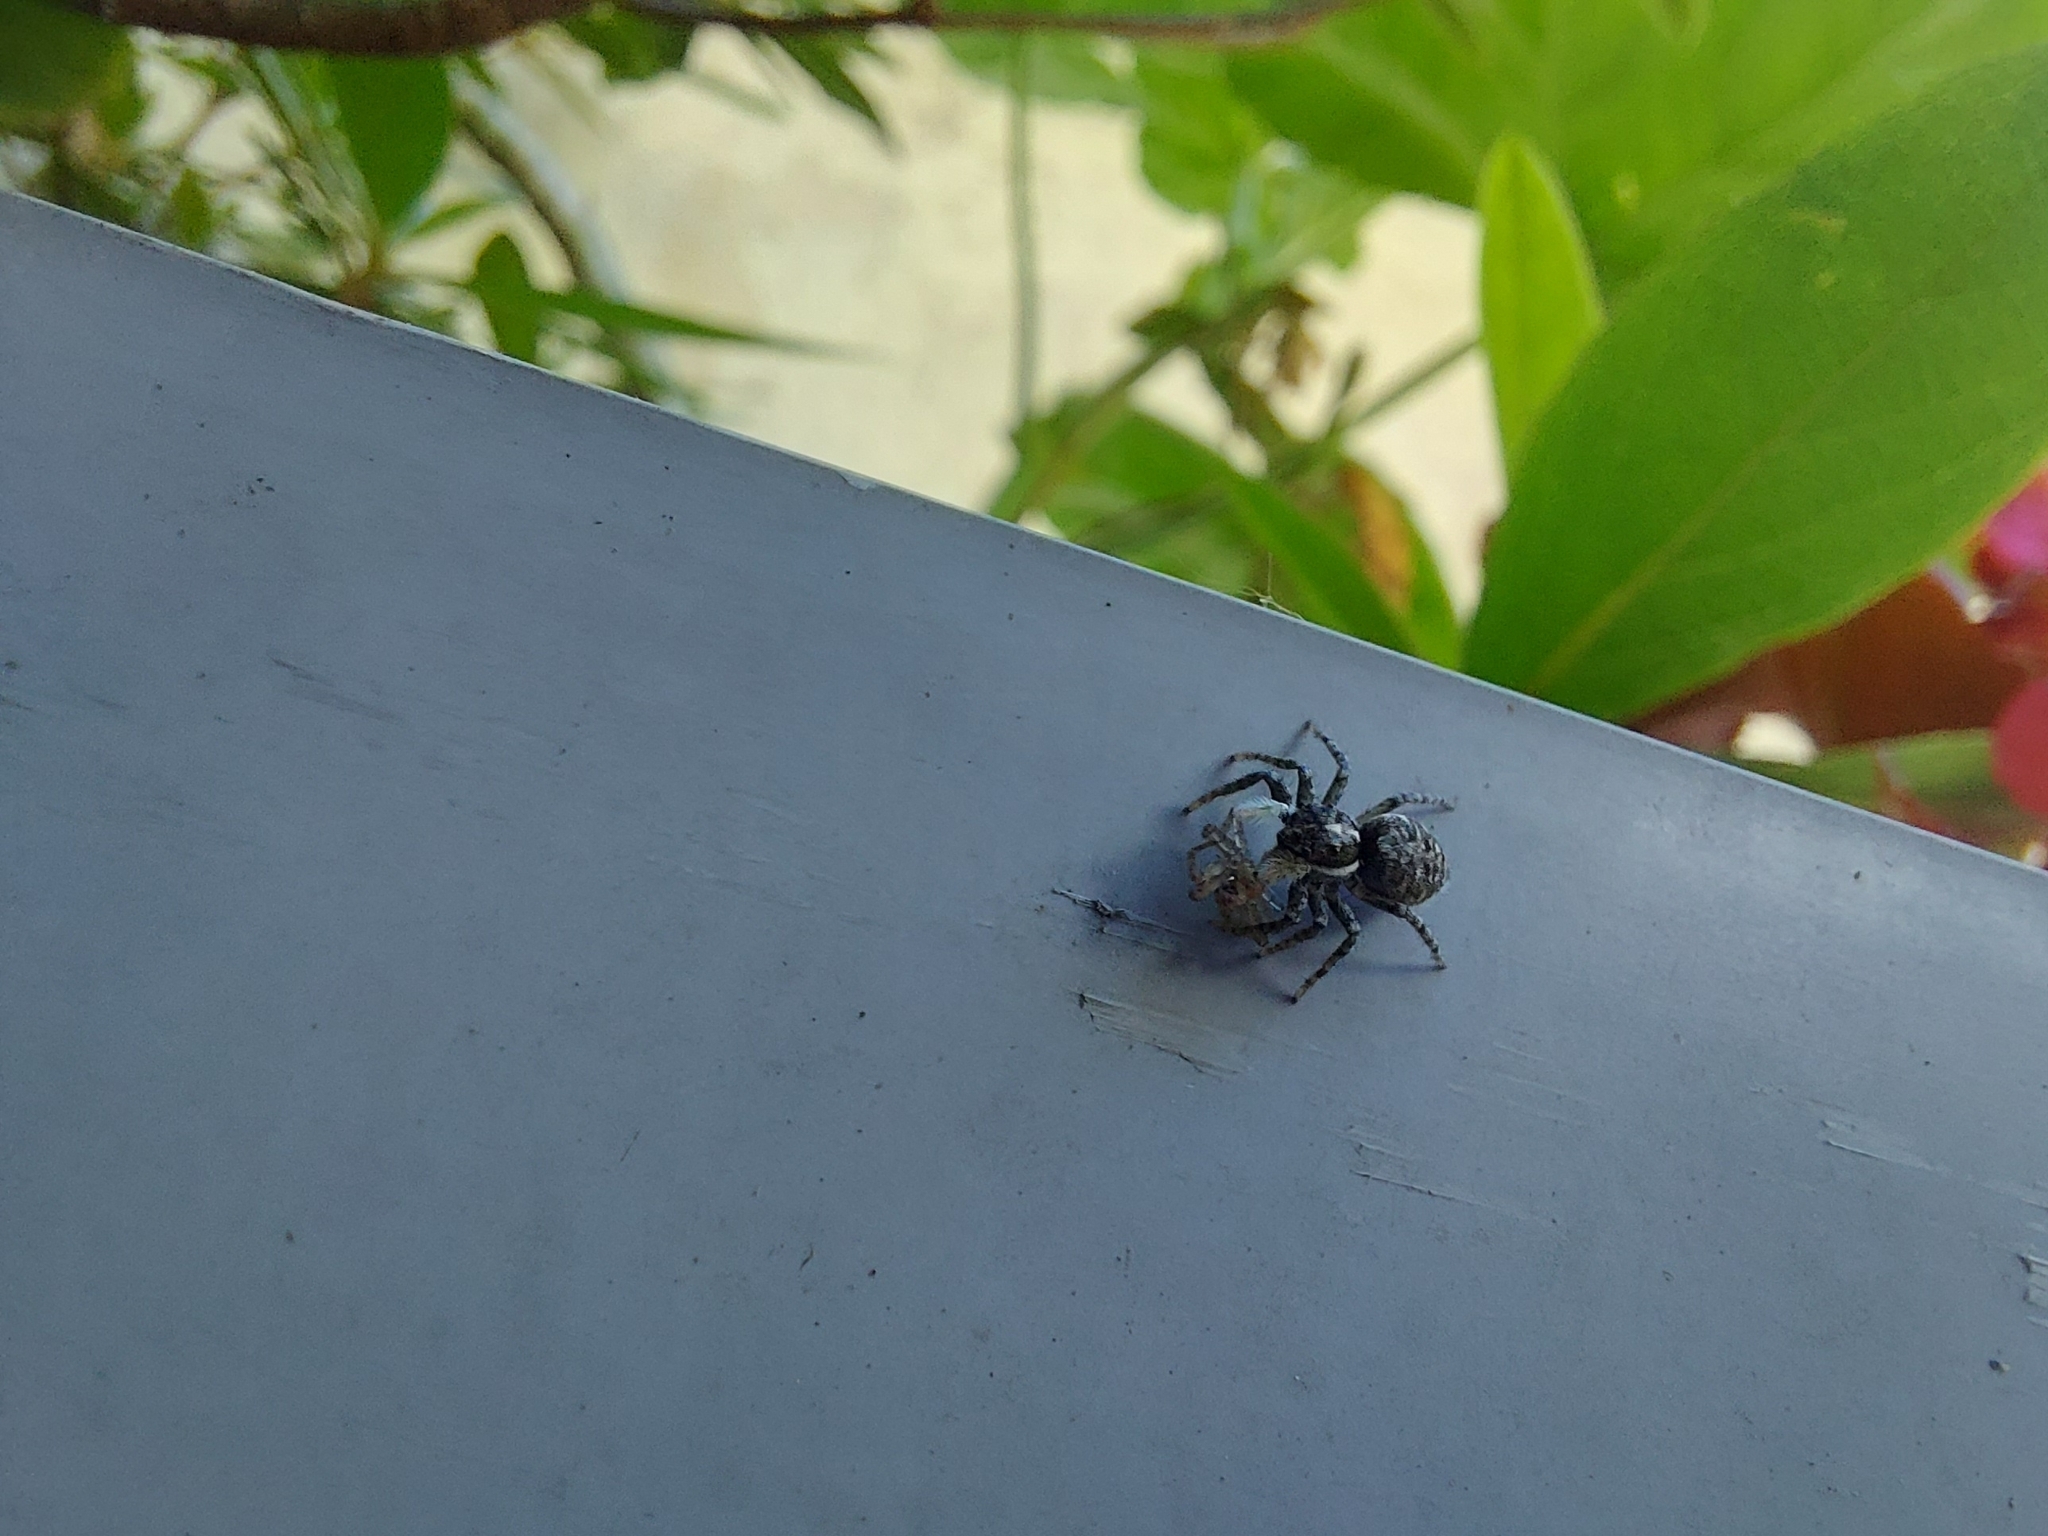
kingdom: Animalia
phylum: Arthropoda
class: Arachnida
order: Araneae
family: Salticidae
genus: Menemerus
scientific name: Menemerus semilimbatus
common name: Jumping spider
